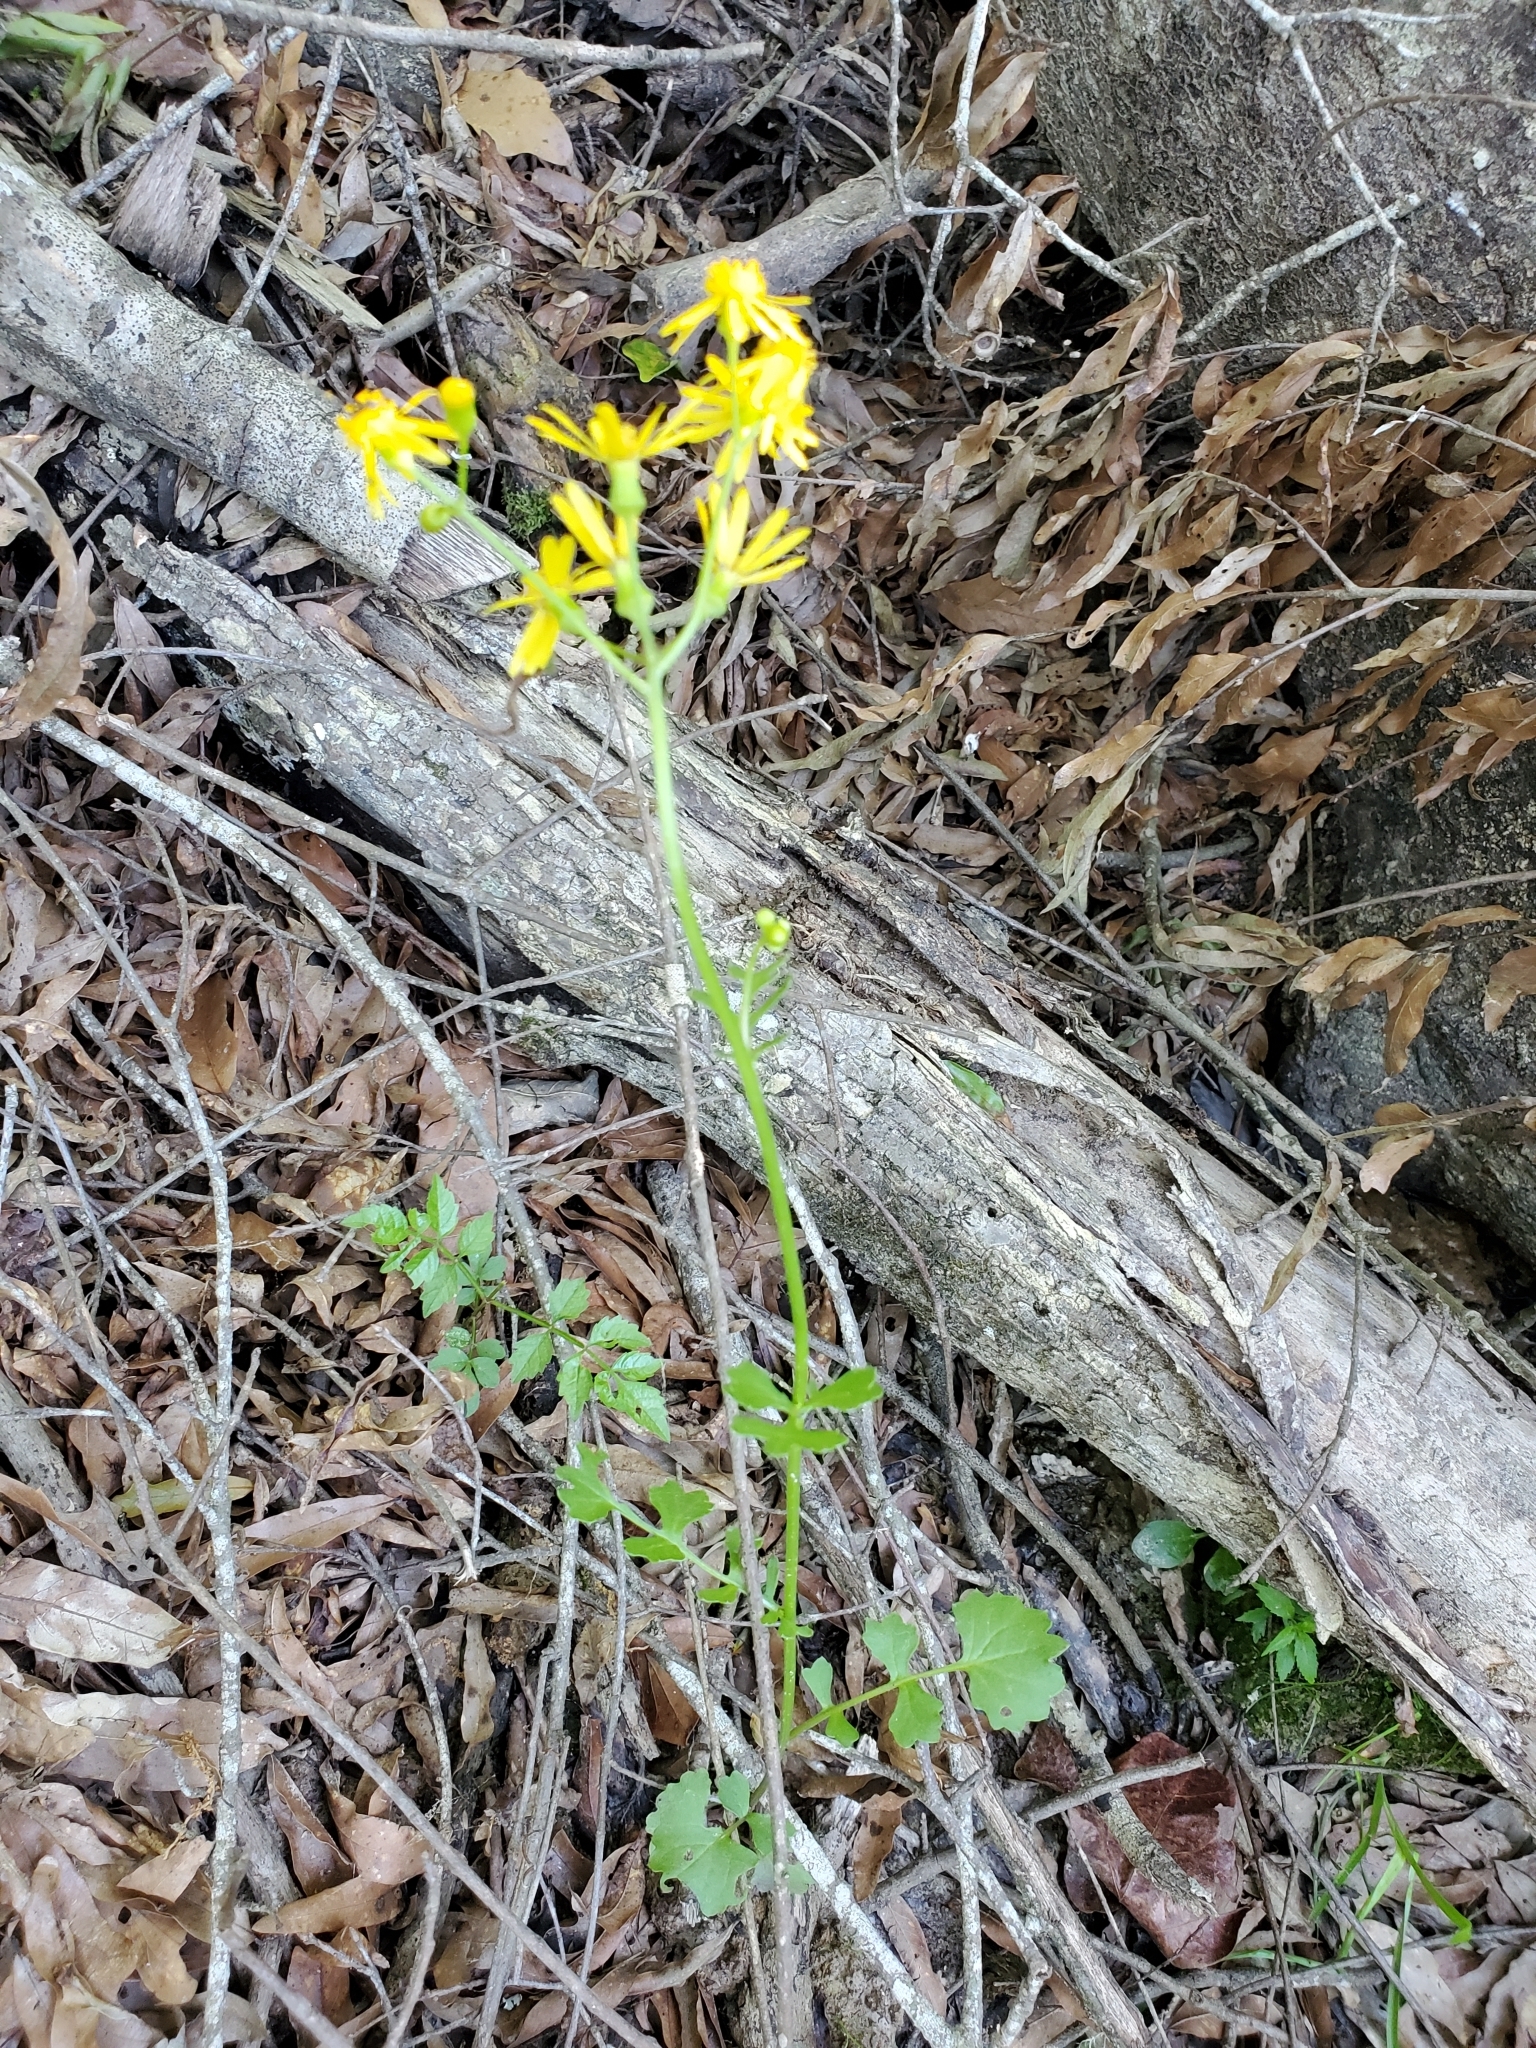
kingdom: Plantae
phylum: Tracheophyta
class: Magnoliopsida
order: Asterales
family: Asteraceae
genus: Packera
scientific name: Packera glabella
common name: Butterweed
